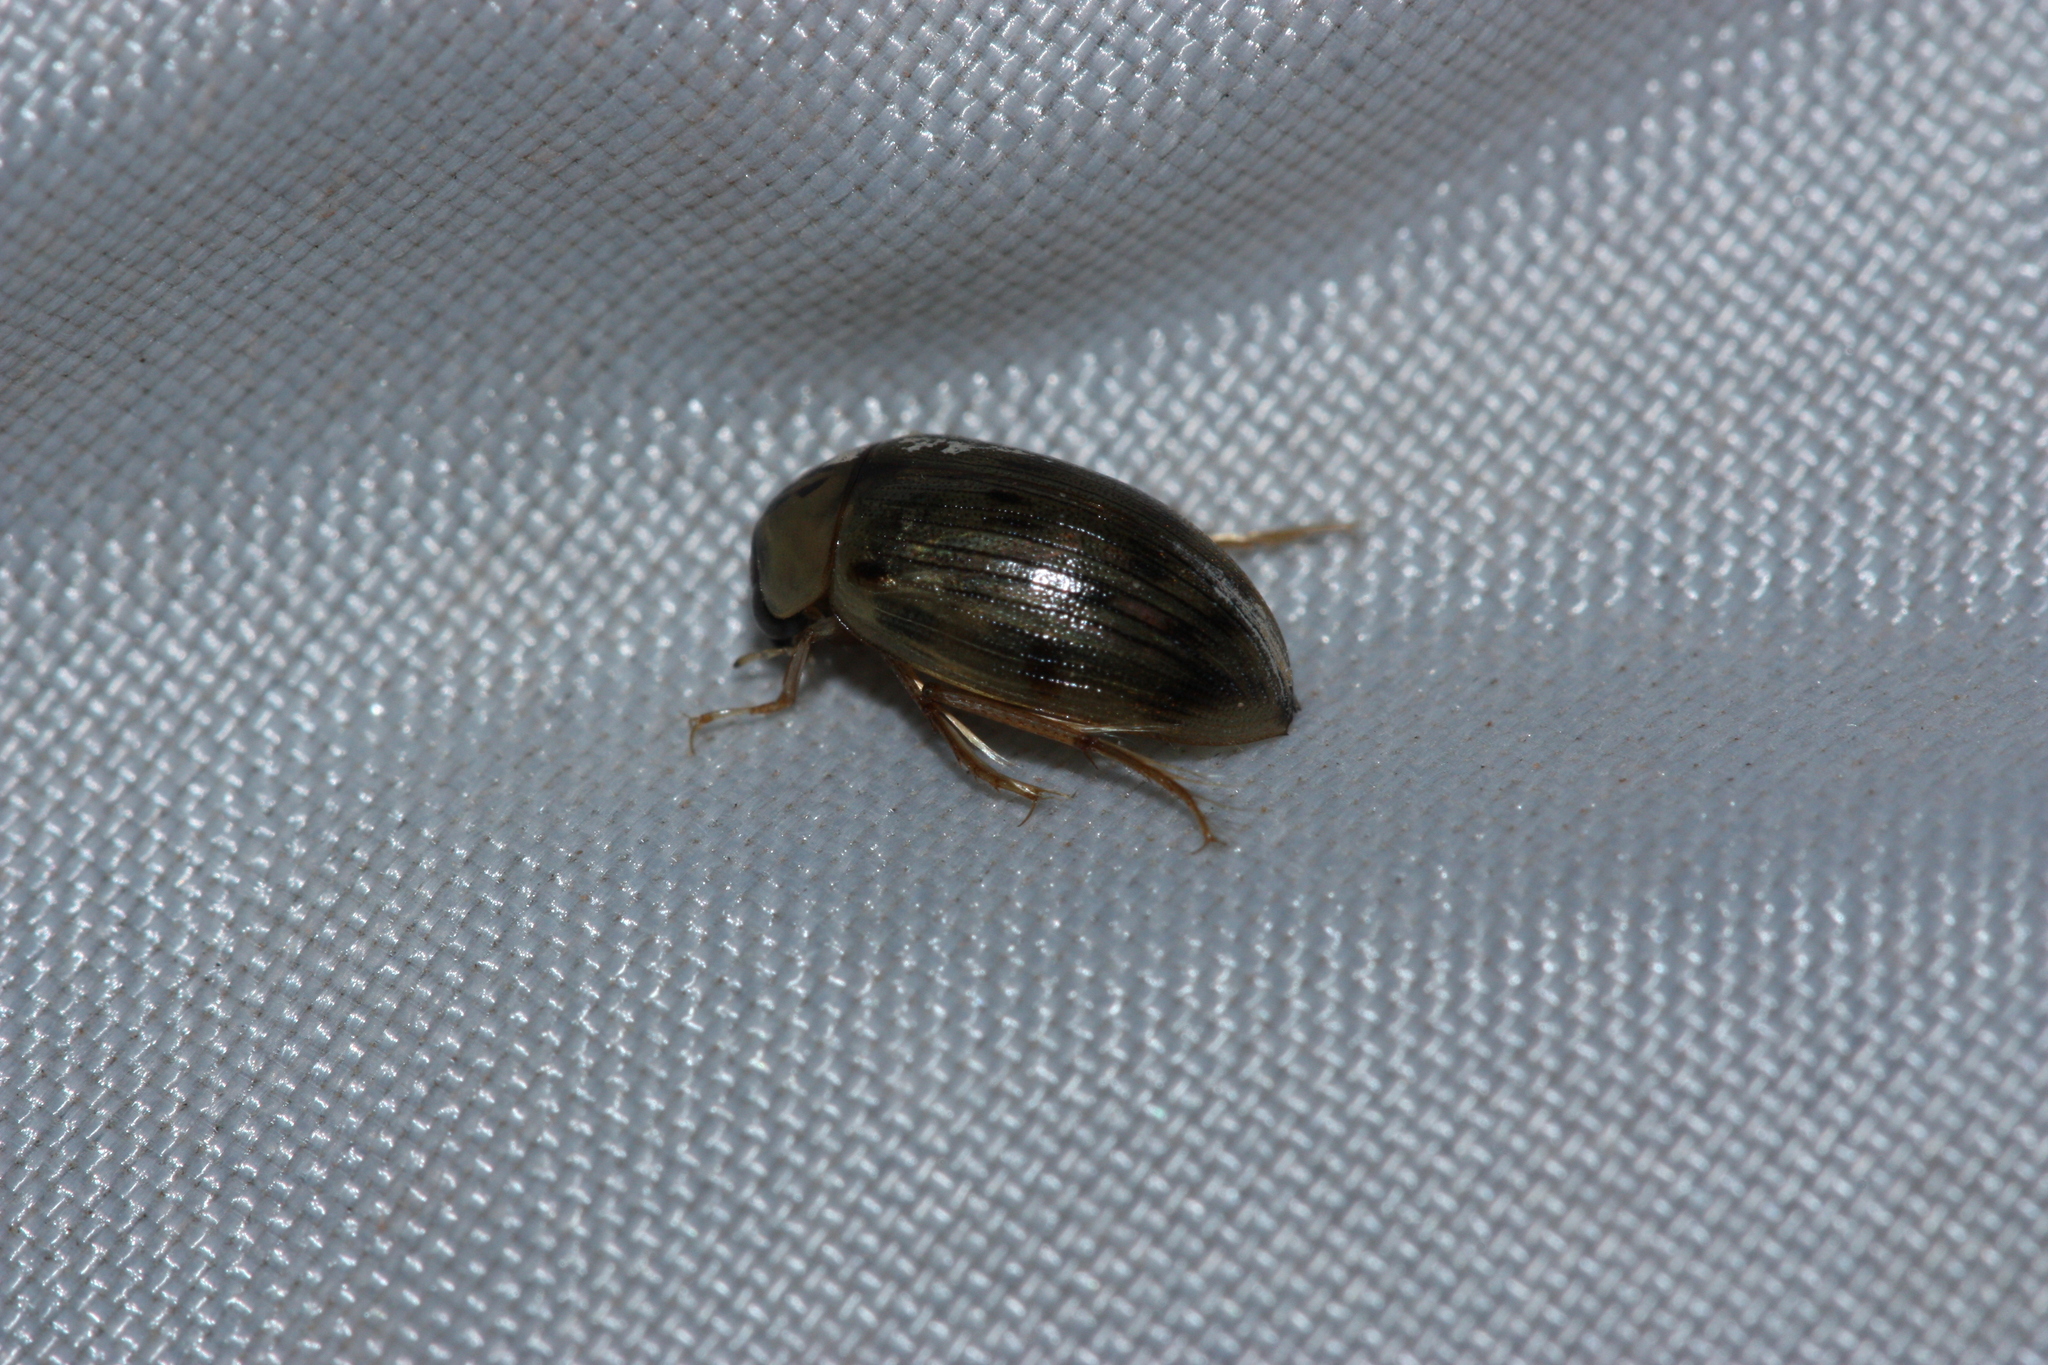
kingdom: Animalia
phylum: Arthropoda
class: Insecta
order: Coleoptera
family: Hydrophilidae
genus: Berosus
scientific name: Berosus
